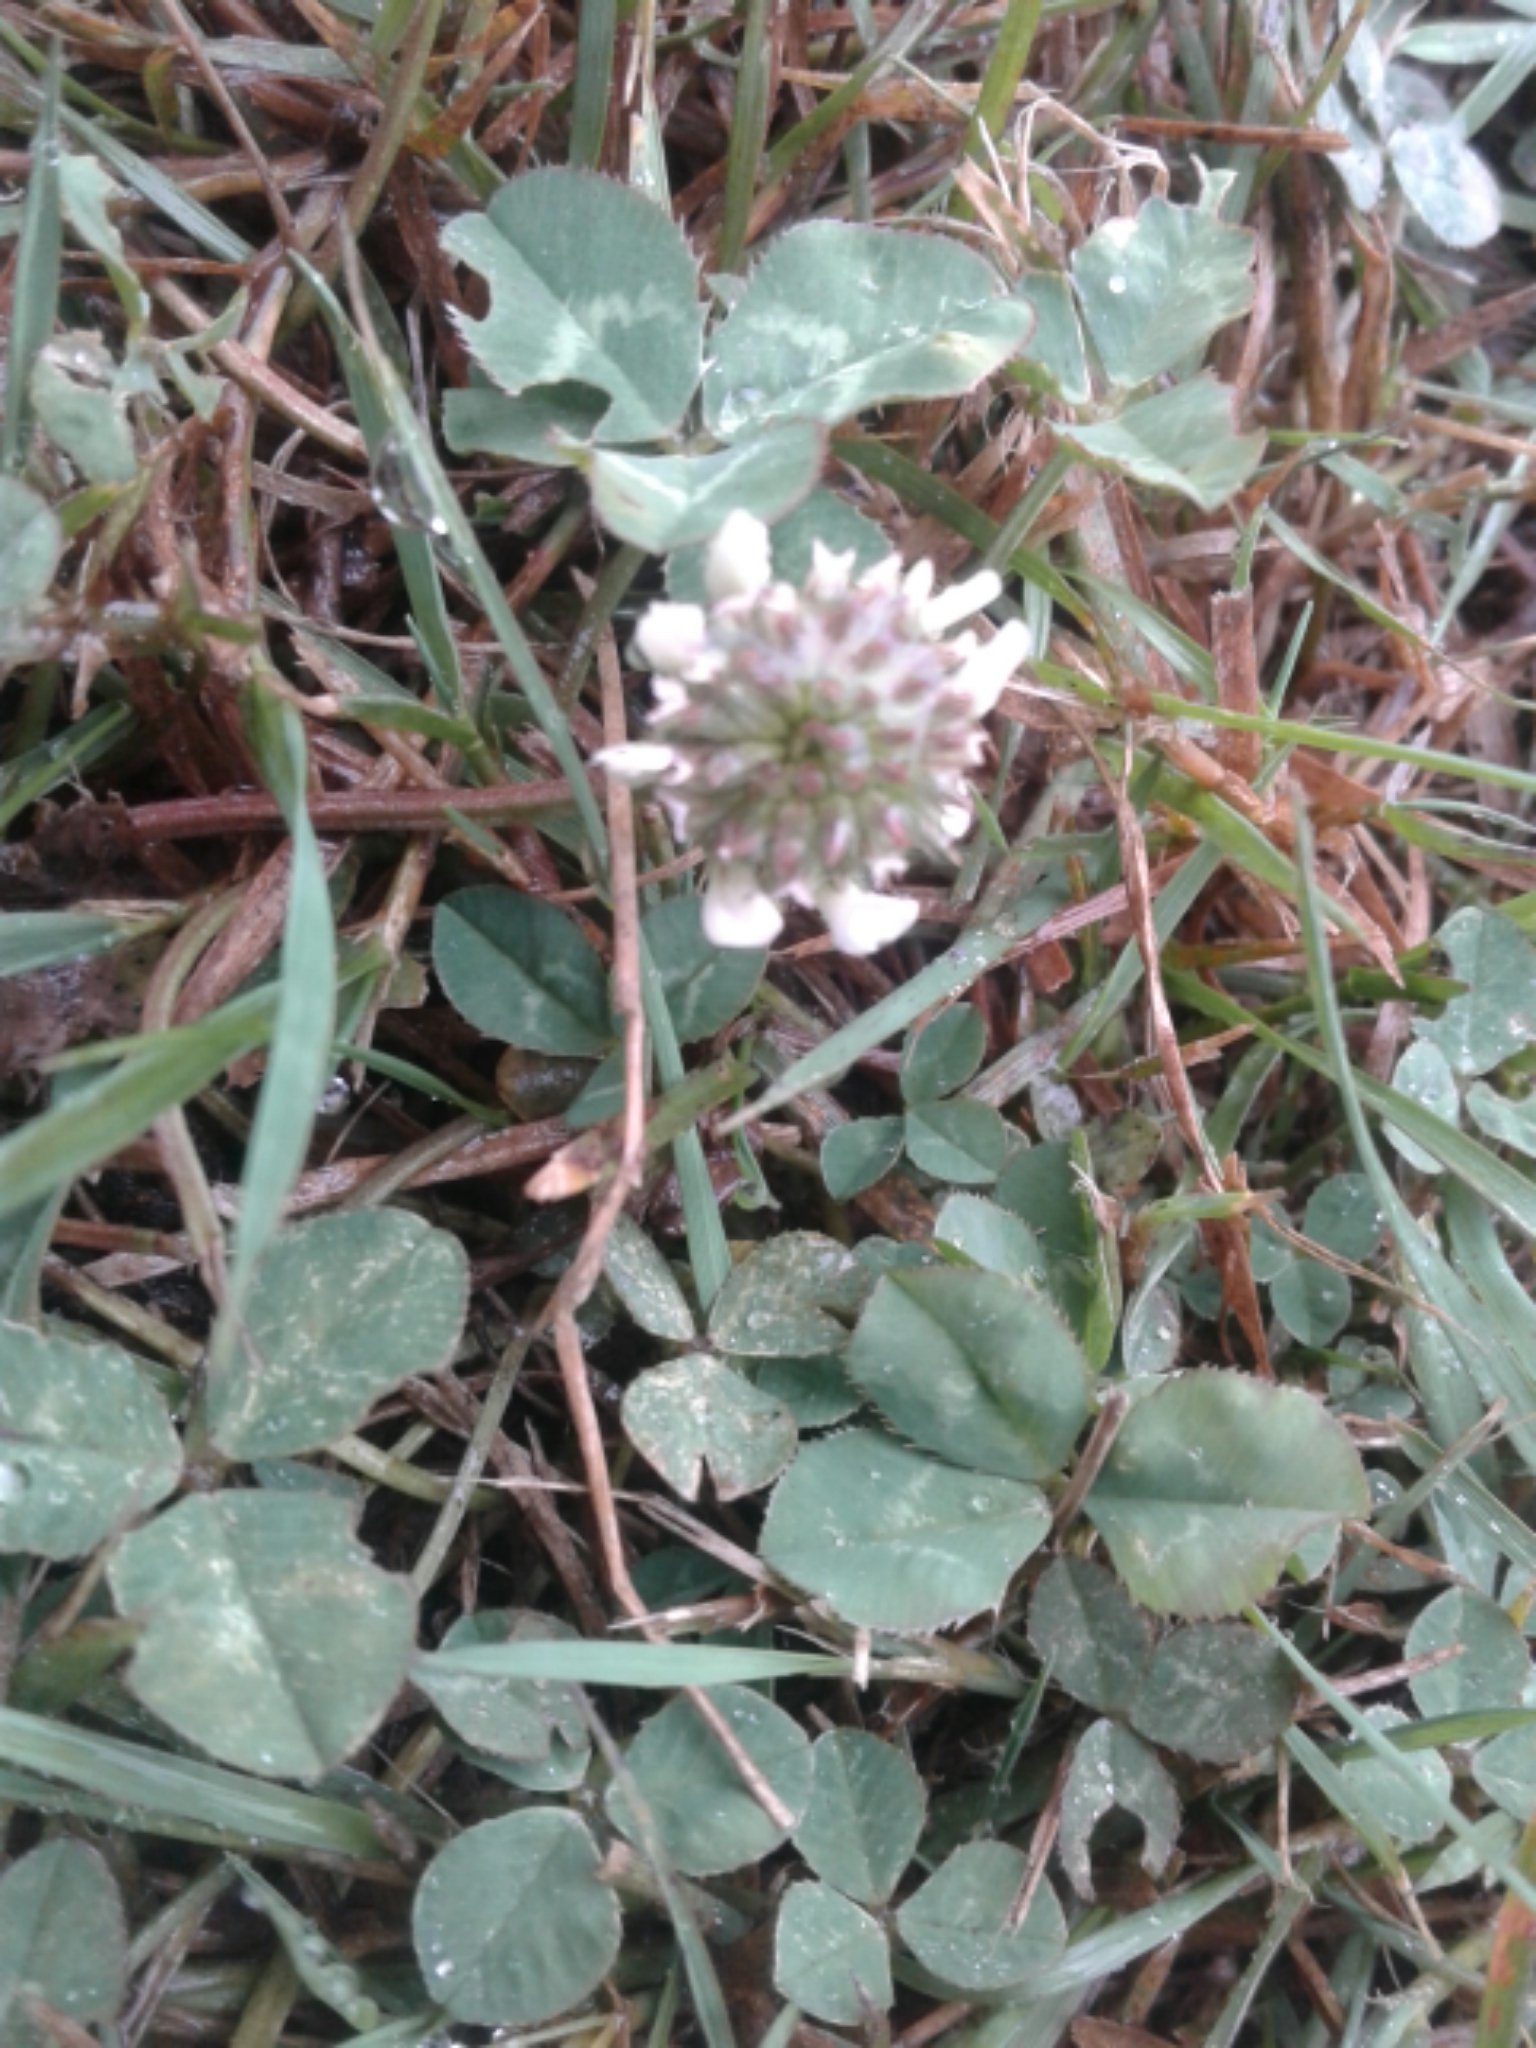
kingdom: Plantae
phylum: Tracheophyta
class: Magnoliopsida
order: Fabales
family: Fabaceae
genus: Trifolium
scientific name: Trifolium repens
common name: White clover
